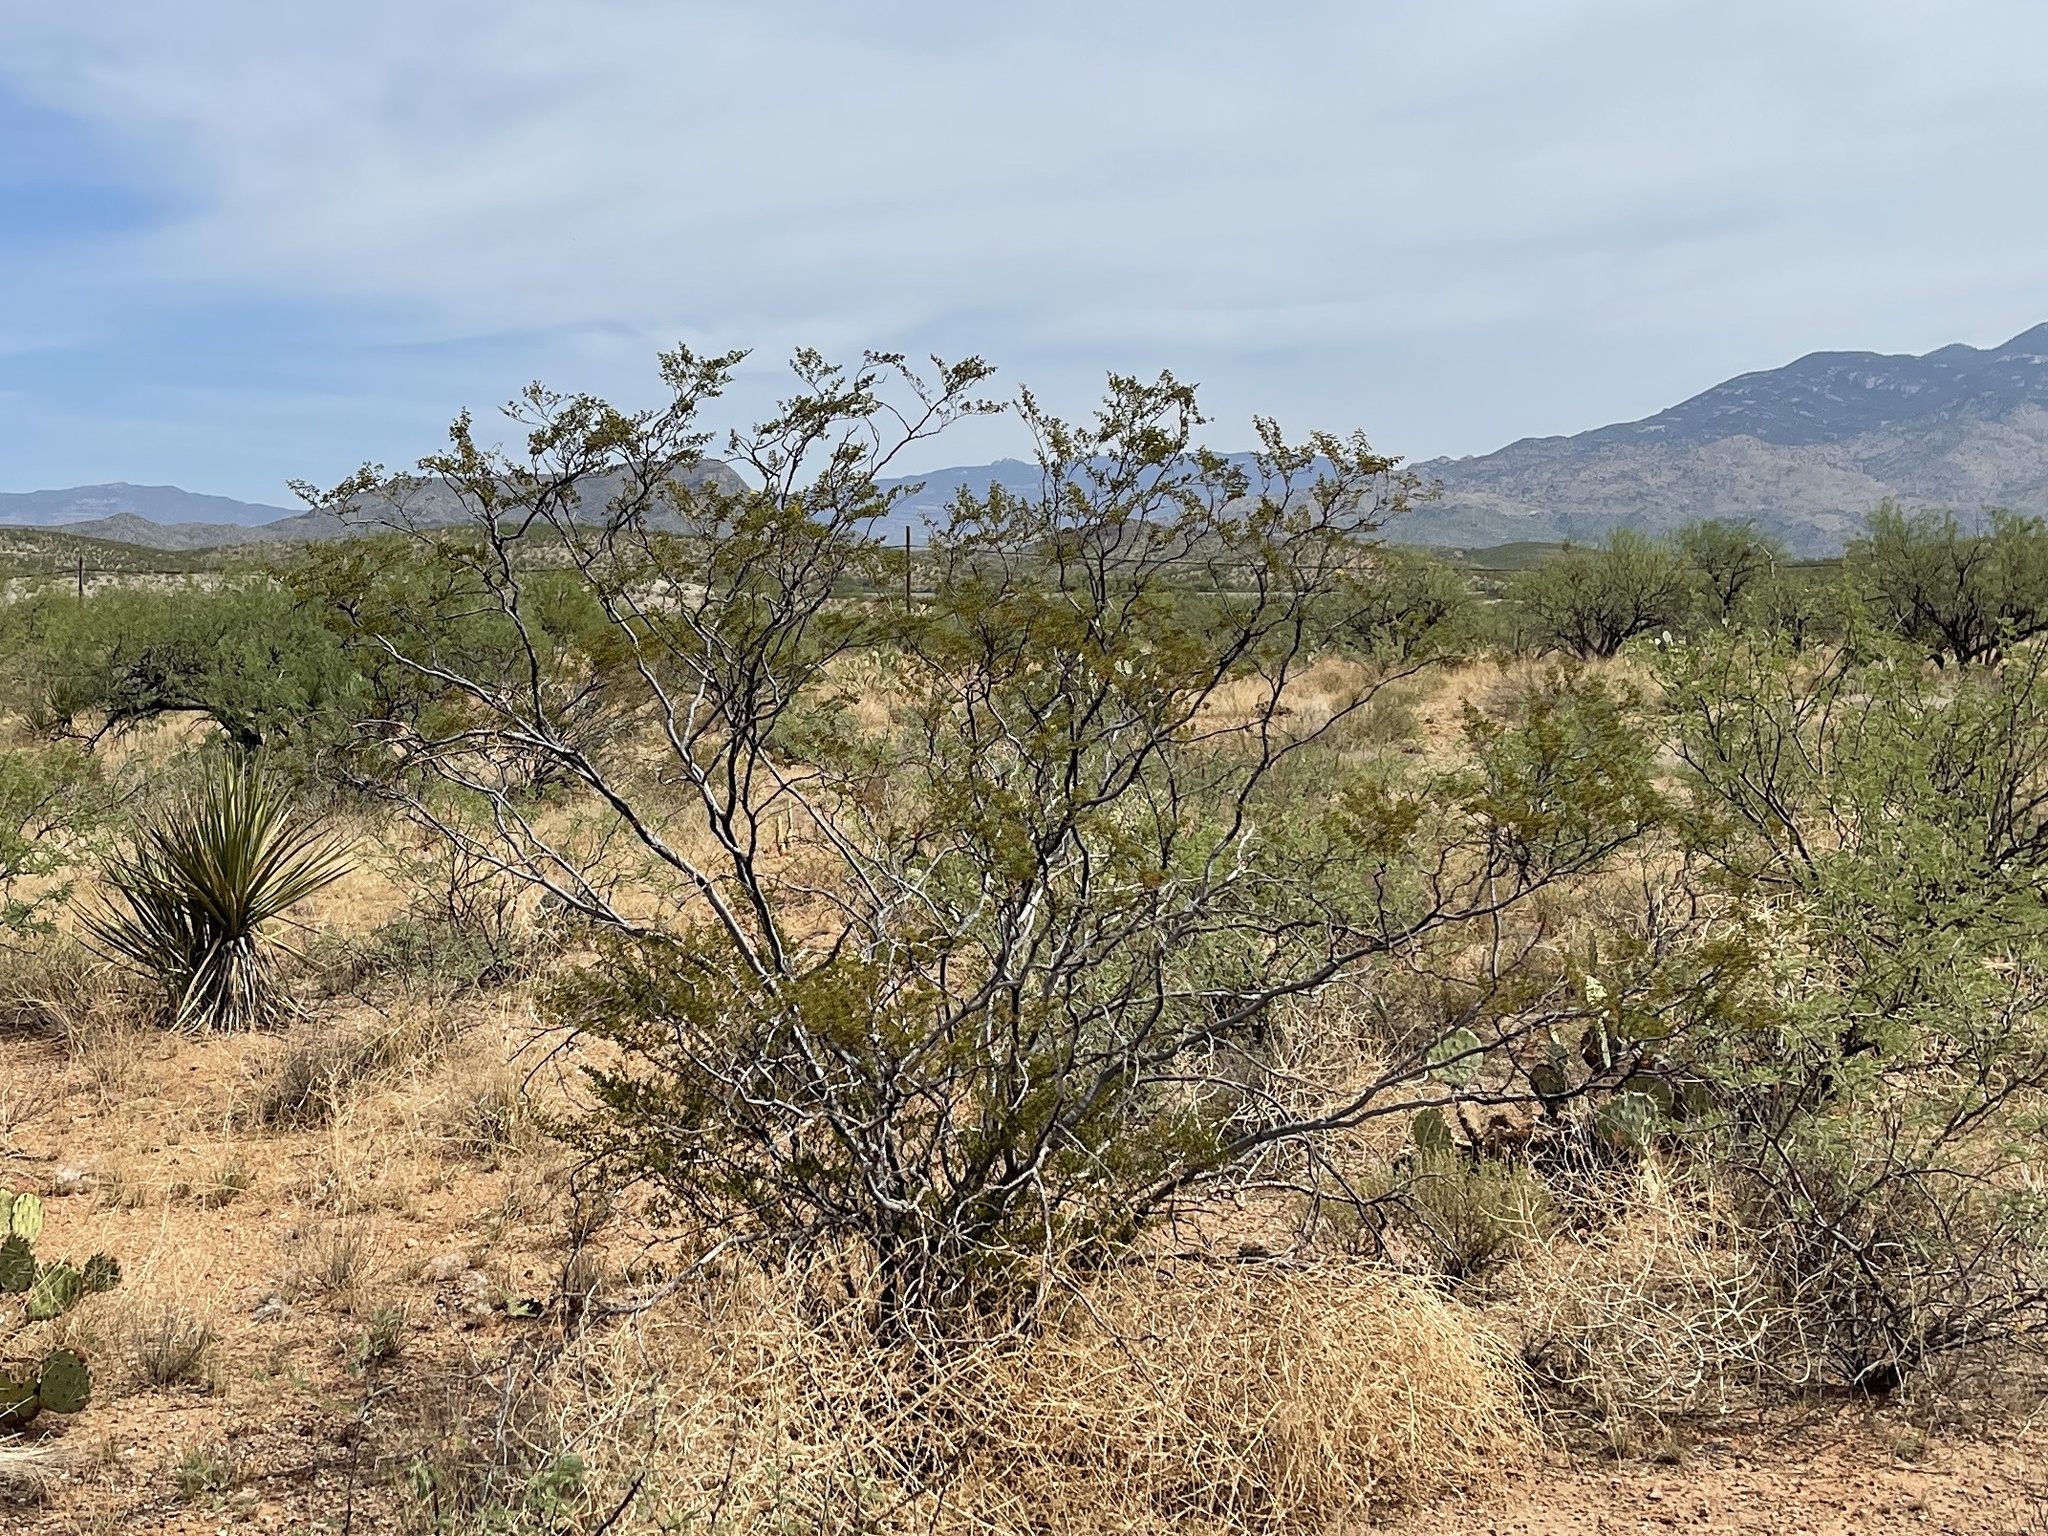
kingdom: Plantae
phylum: Tracheophyta
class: Magnoliopsida
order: Zygophyllales
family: Zygophyllaceae
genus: Larrea
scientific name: Larrea tridentata
